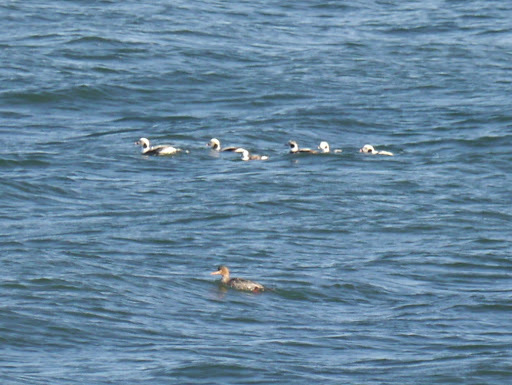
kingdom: Animalia
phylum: Chordata
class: Aves
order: Anseriformes
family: Anatidae
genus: Clangula
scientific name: Clangula hyemalis
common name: Long-tailed duck
